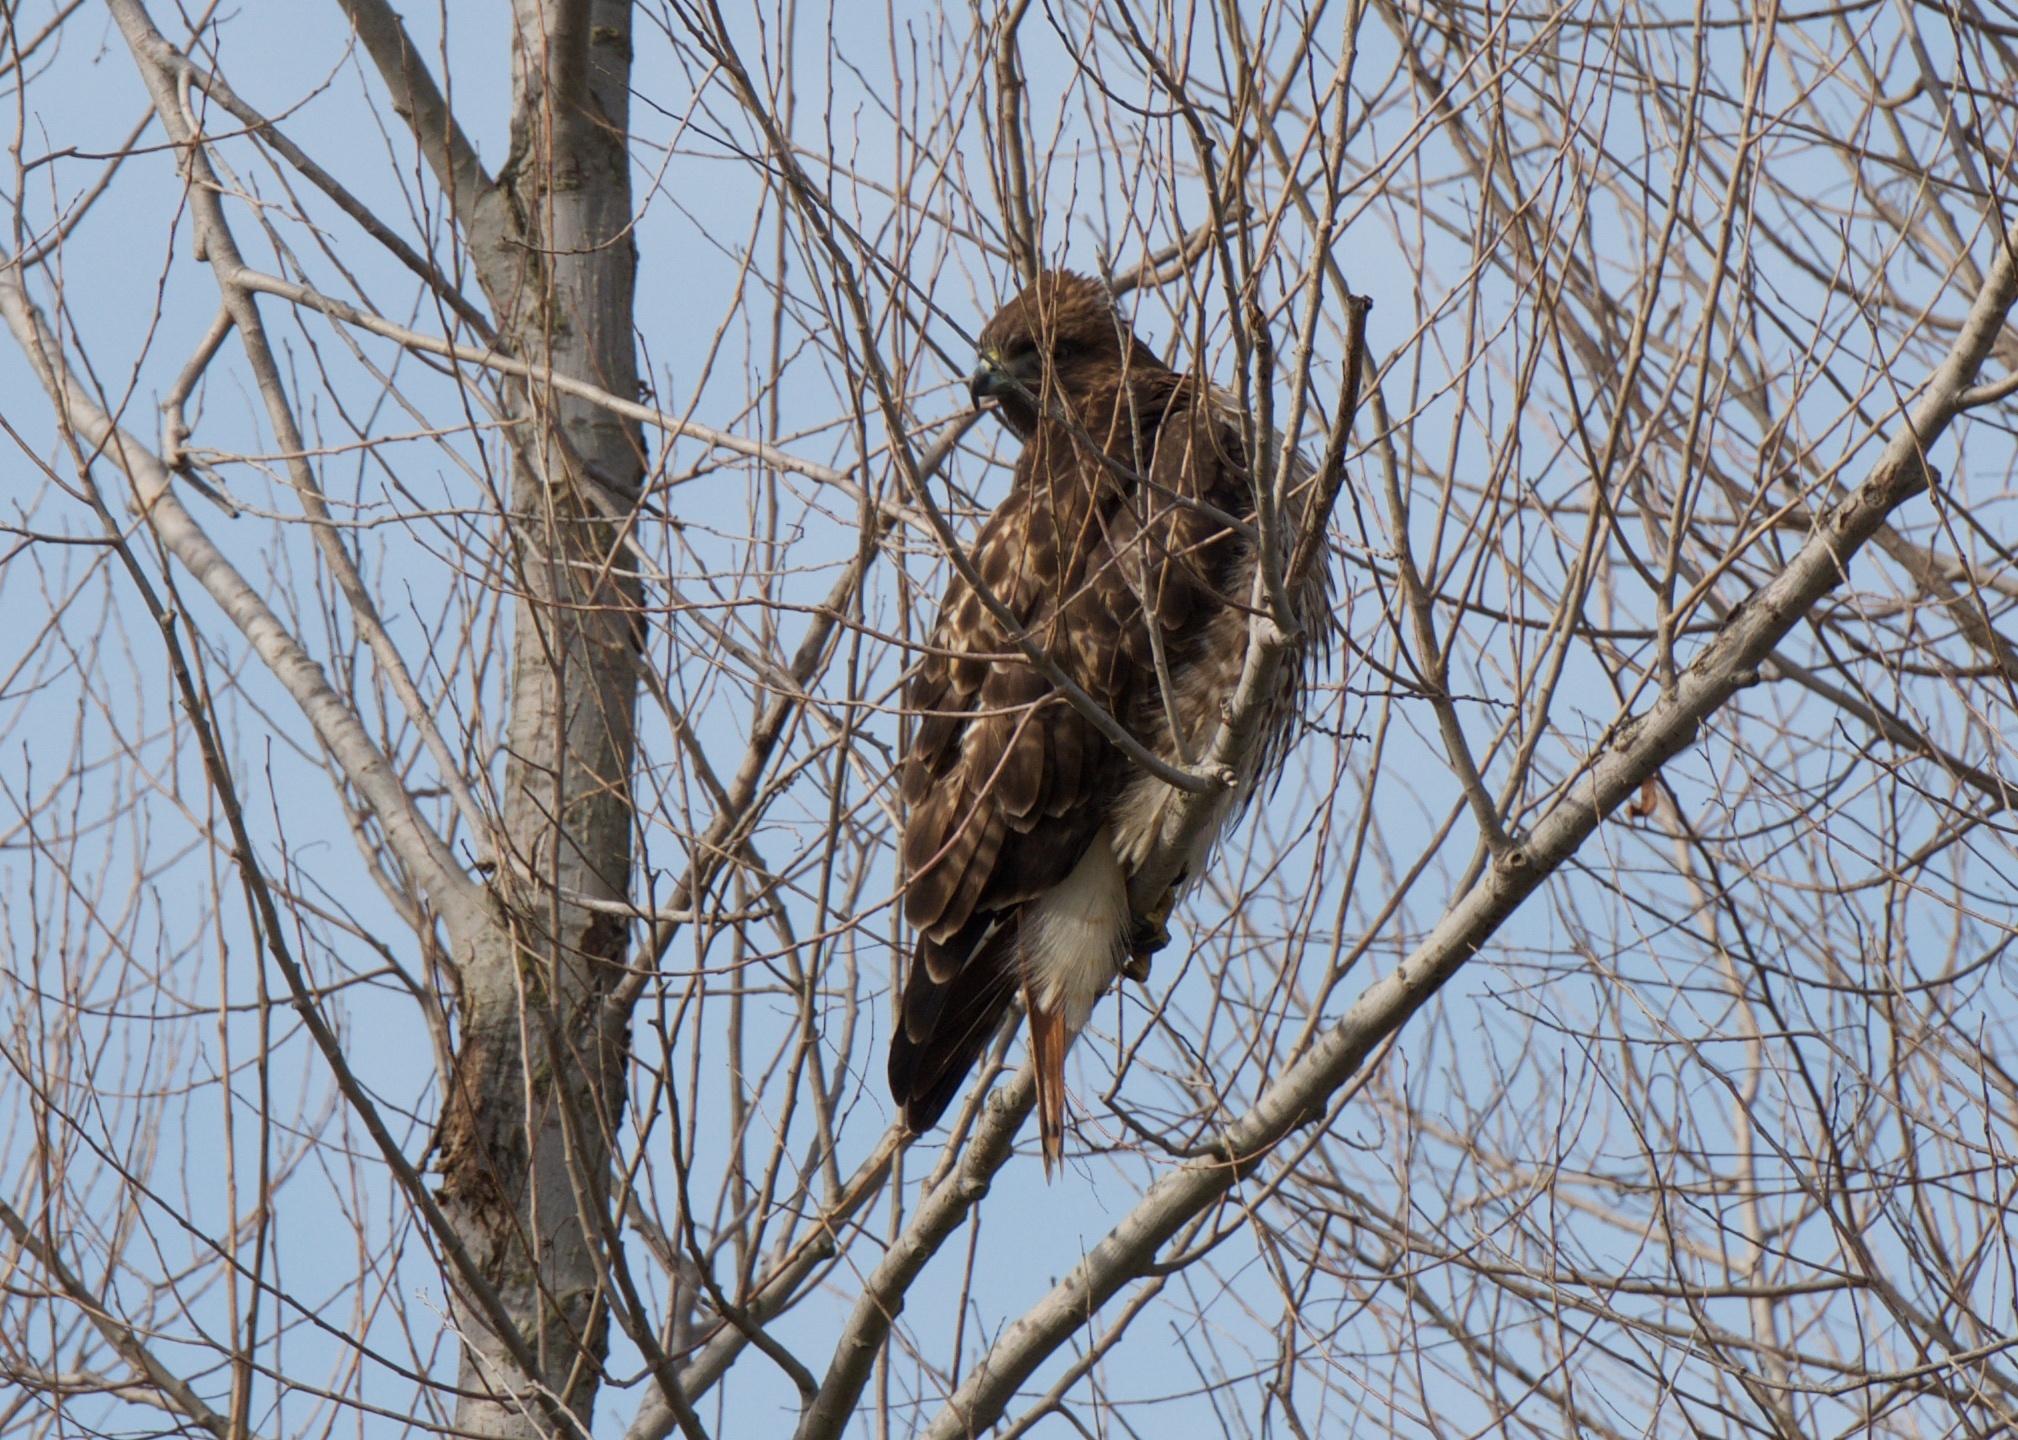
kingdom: Animalia
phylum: Chordata
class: Aves
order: Accipitriformes
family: Accipitridae
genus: Buteo
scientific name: Buteo jamaicensis
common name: Red-tailed hawk
